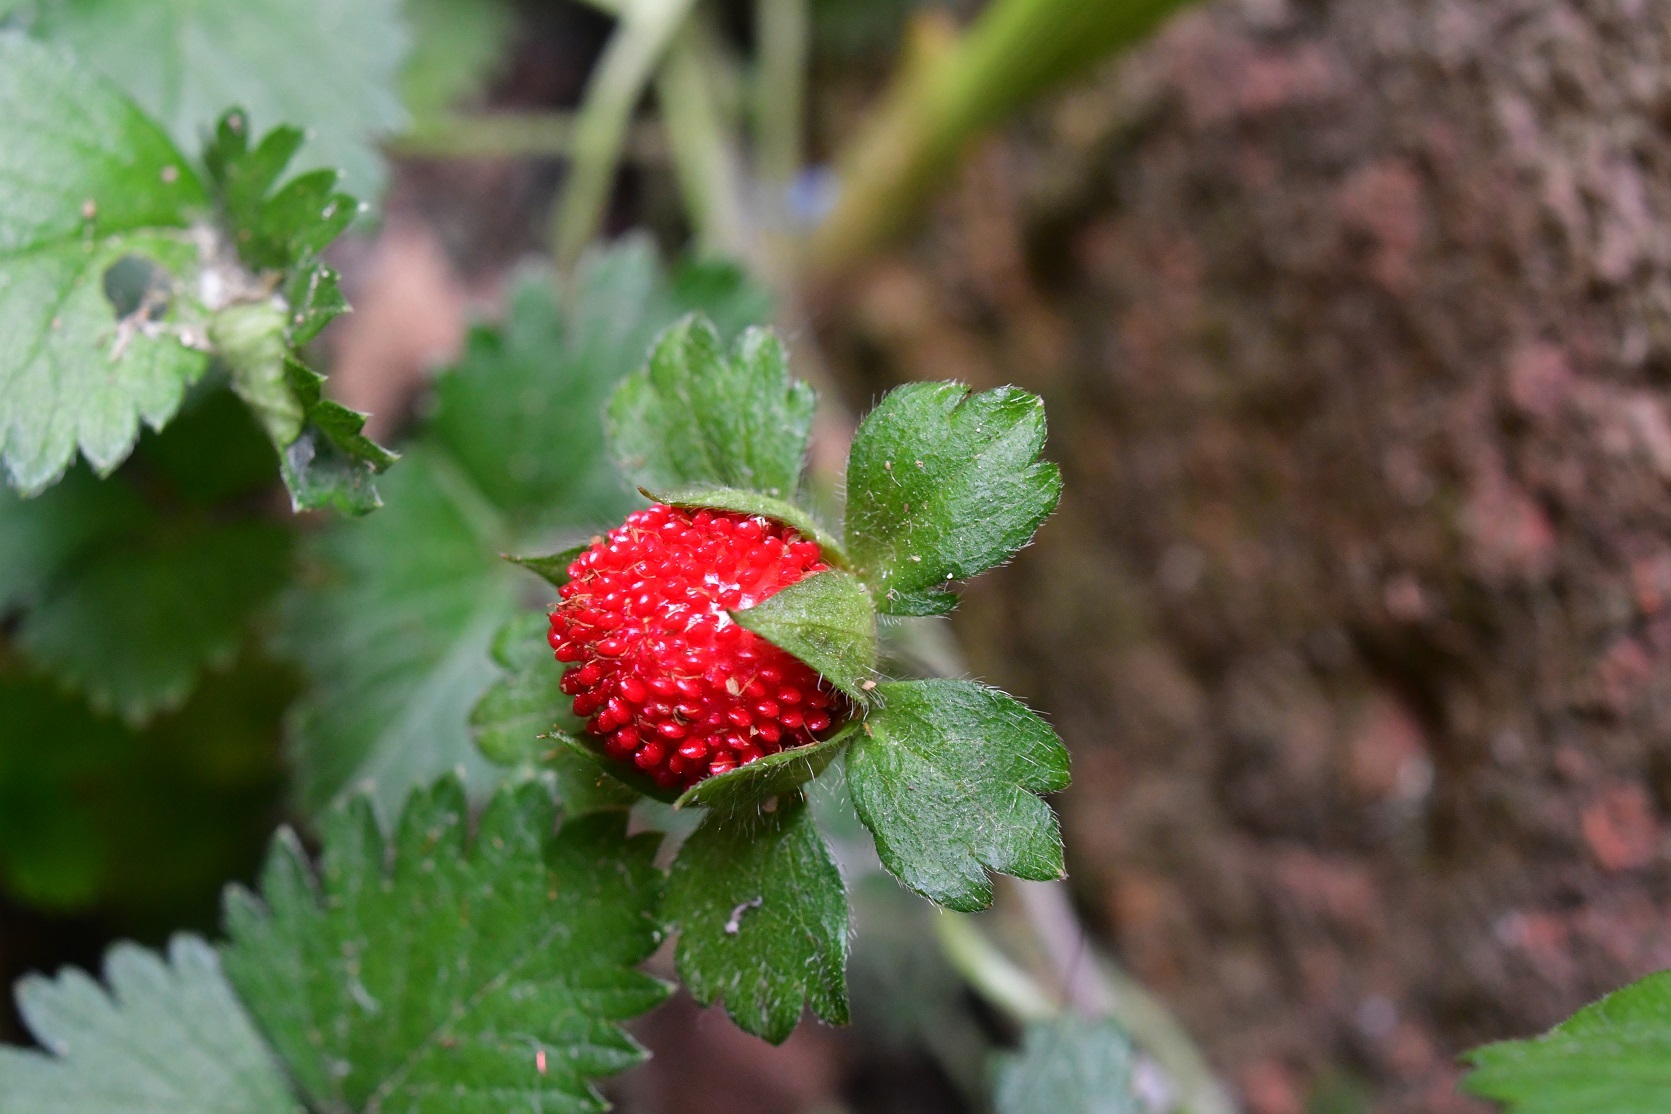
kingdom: Plantae
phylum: Tracheophyta
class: Magnoliopsida
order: Rosales
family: Rosaceae
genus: Potentilla
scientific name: Potentilla indica
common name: Yellow-flowered strawberry
